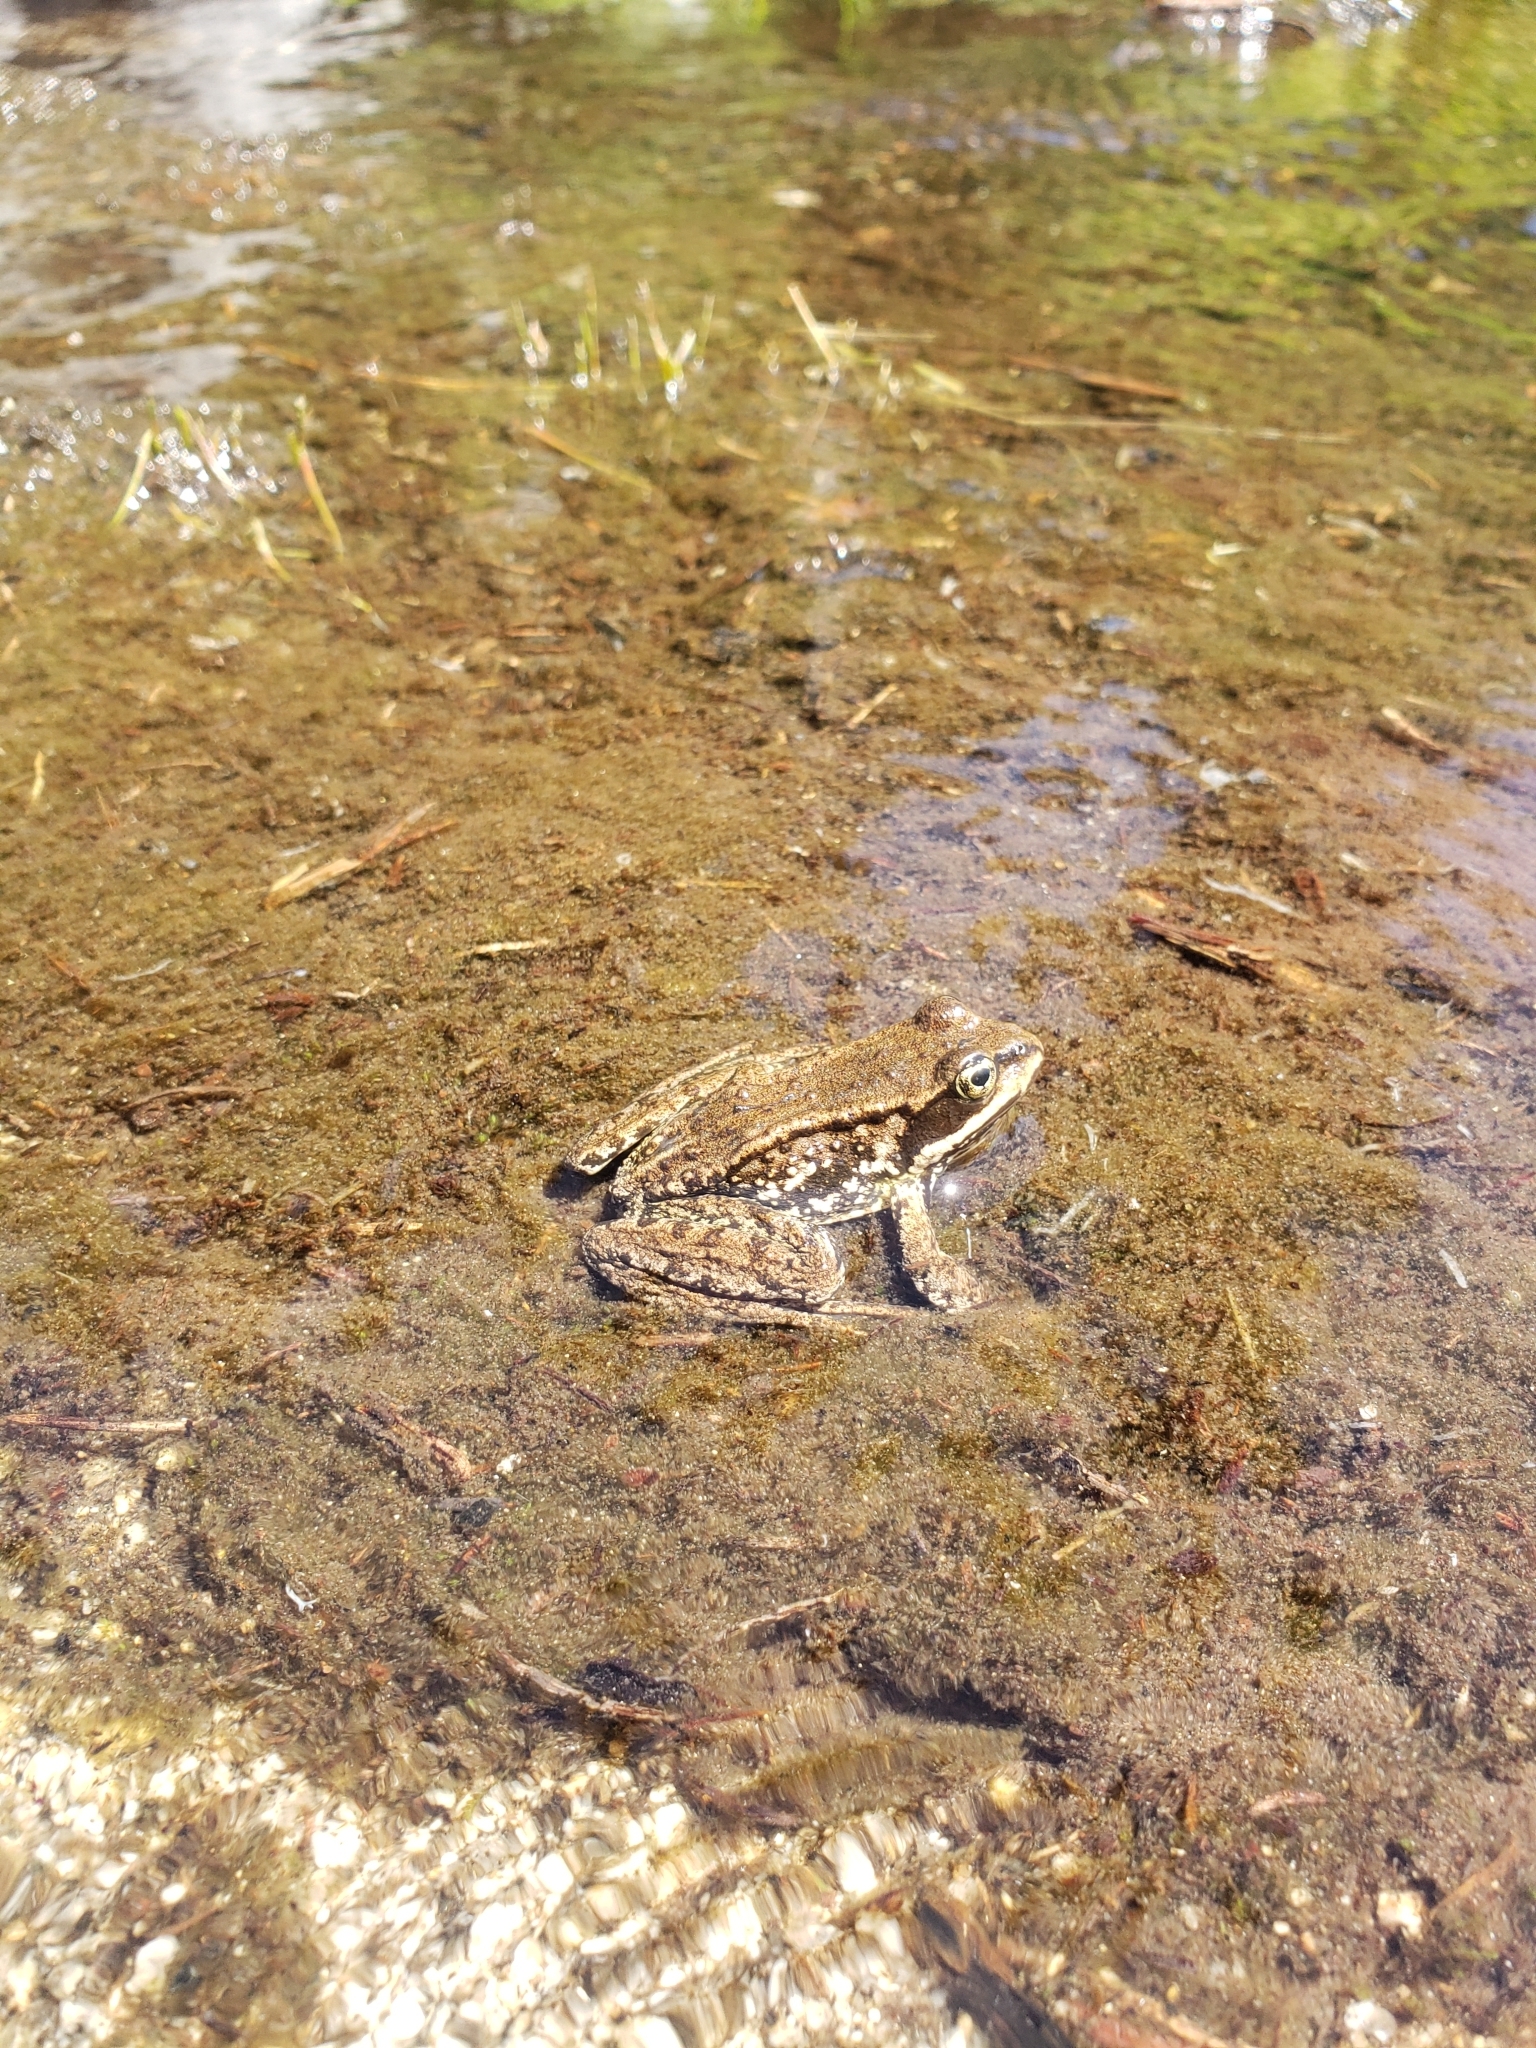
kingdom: Animalia
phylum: Chordata
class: Amphibia
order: Anura
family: Ranidae
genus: Rana
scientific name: Rana cascadae
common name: Cascades frog
